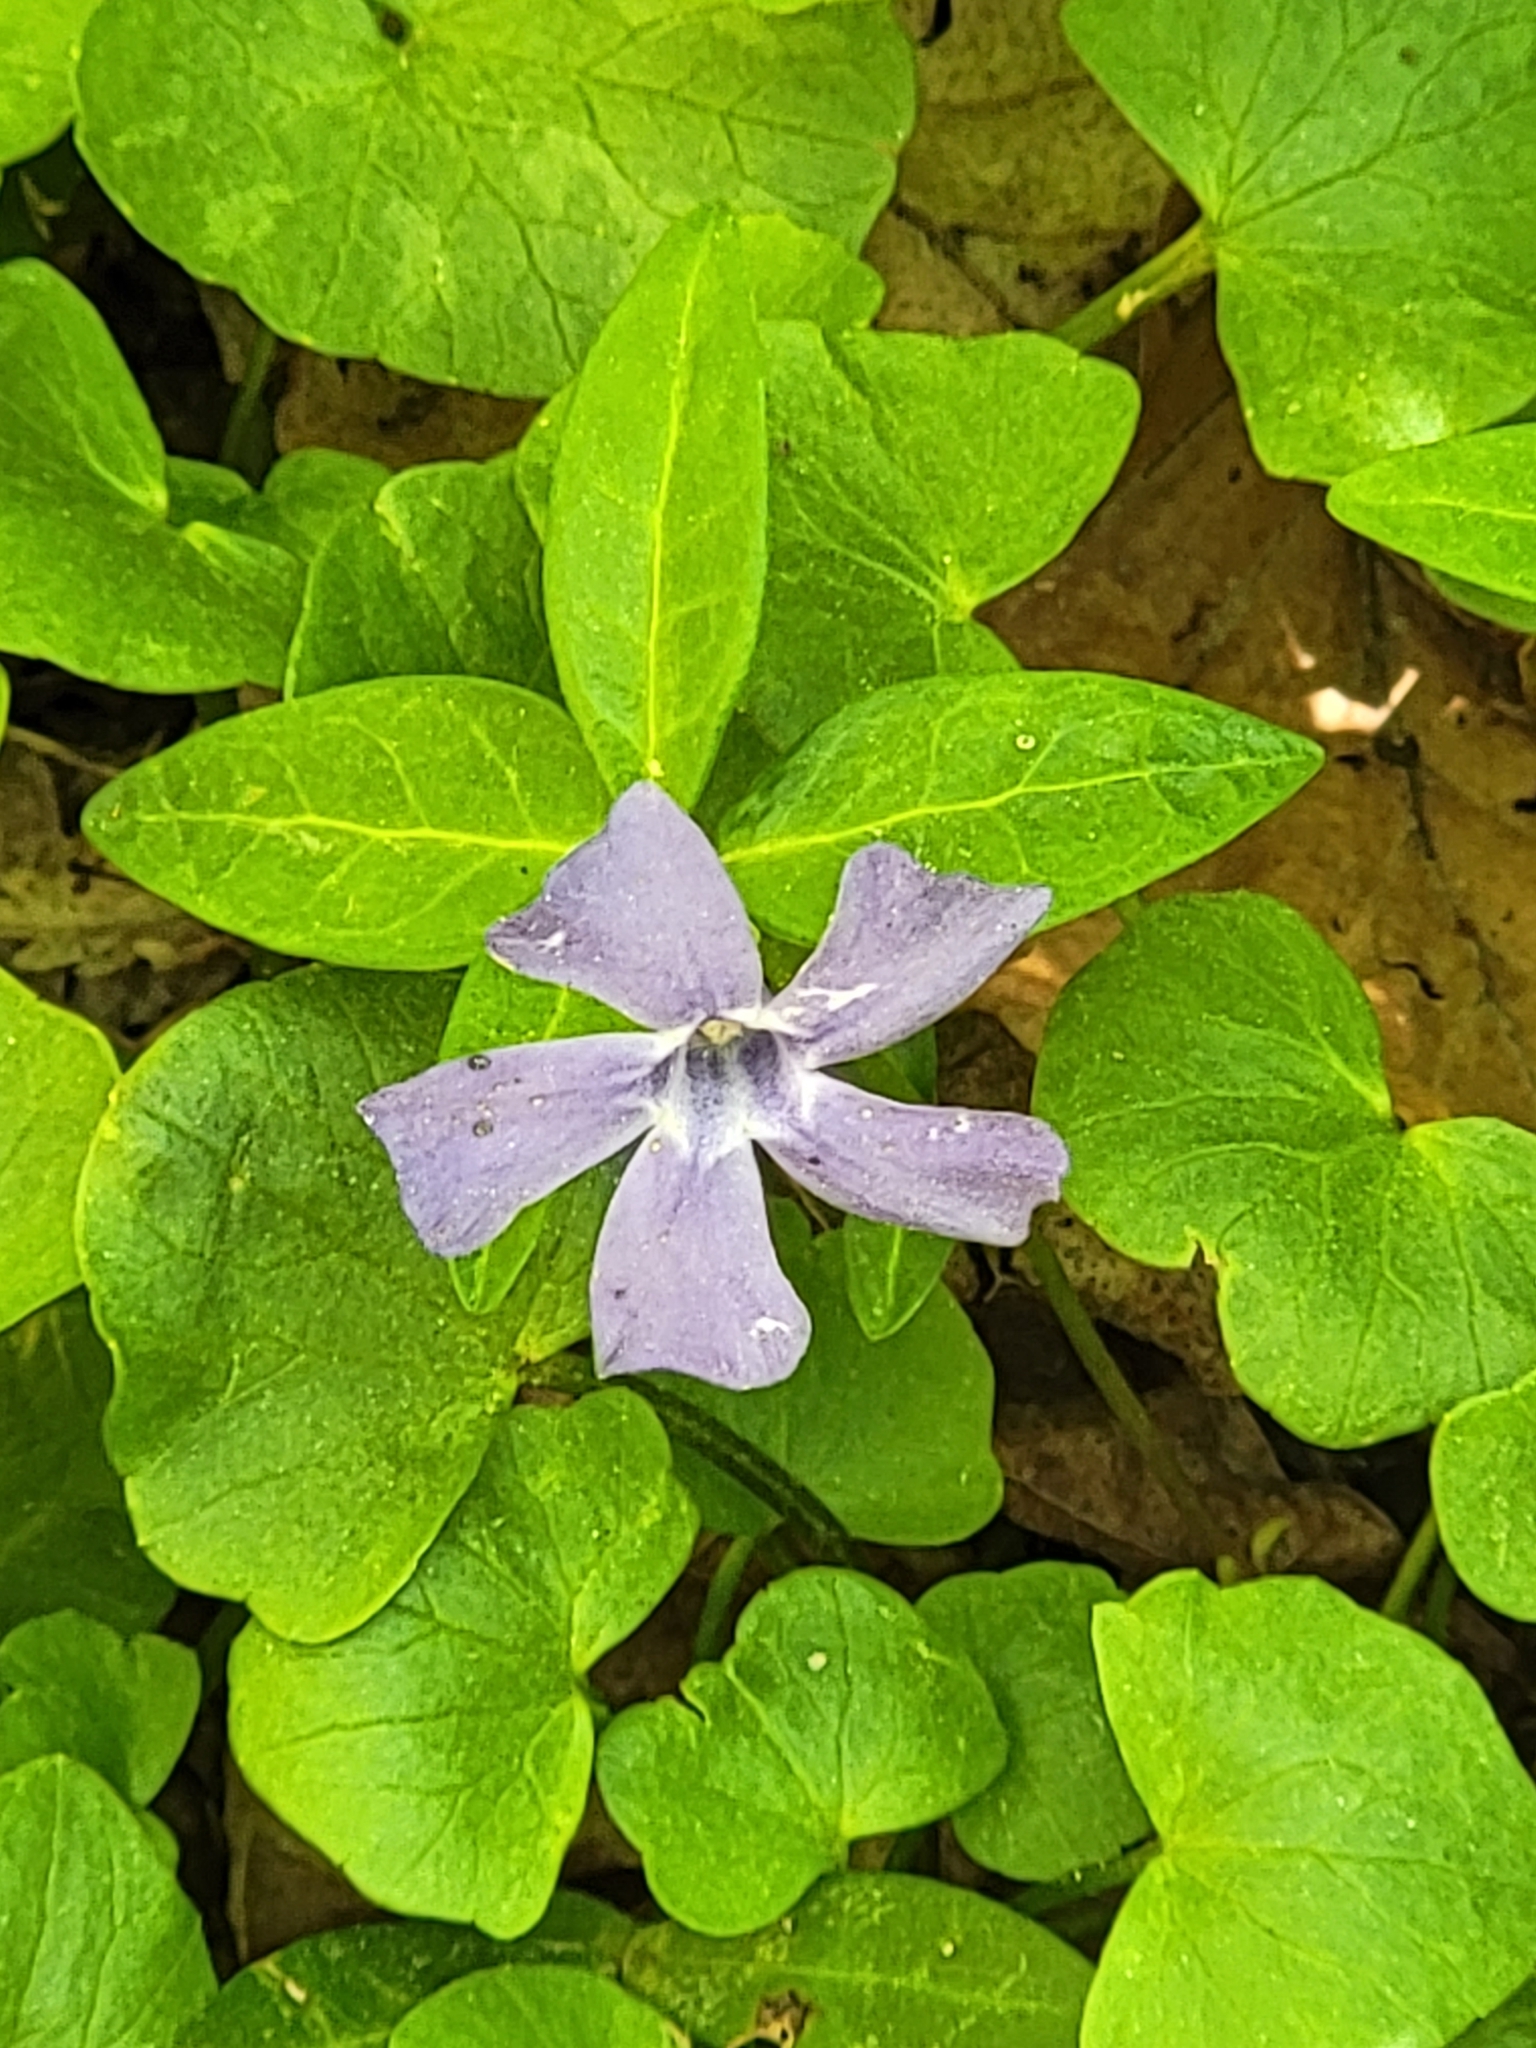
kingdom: Plantae
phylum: Tracheophyta
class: Magnoliopsida
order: Gentianales
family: Apocynaceae
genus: Vinca
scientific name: Vinca minor
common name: Lesser periwinkle
